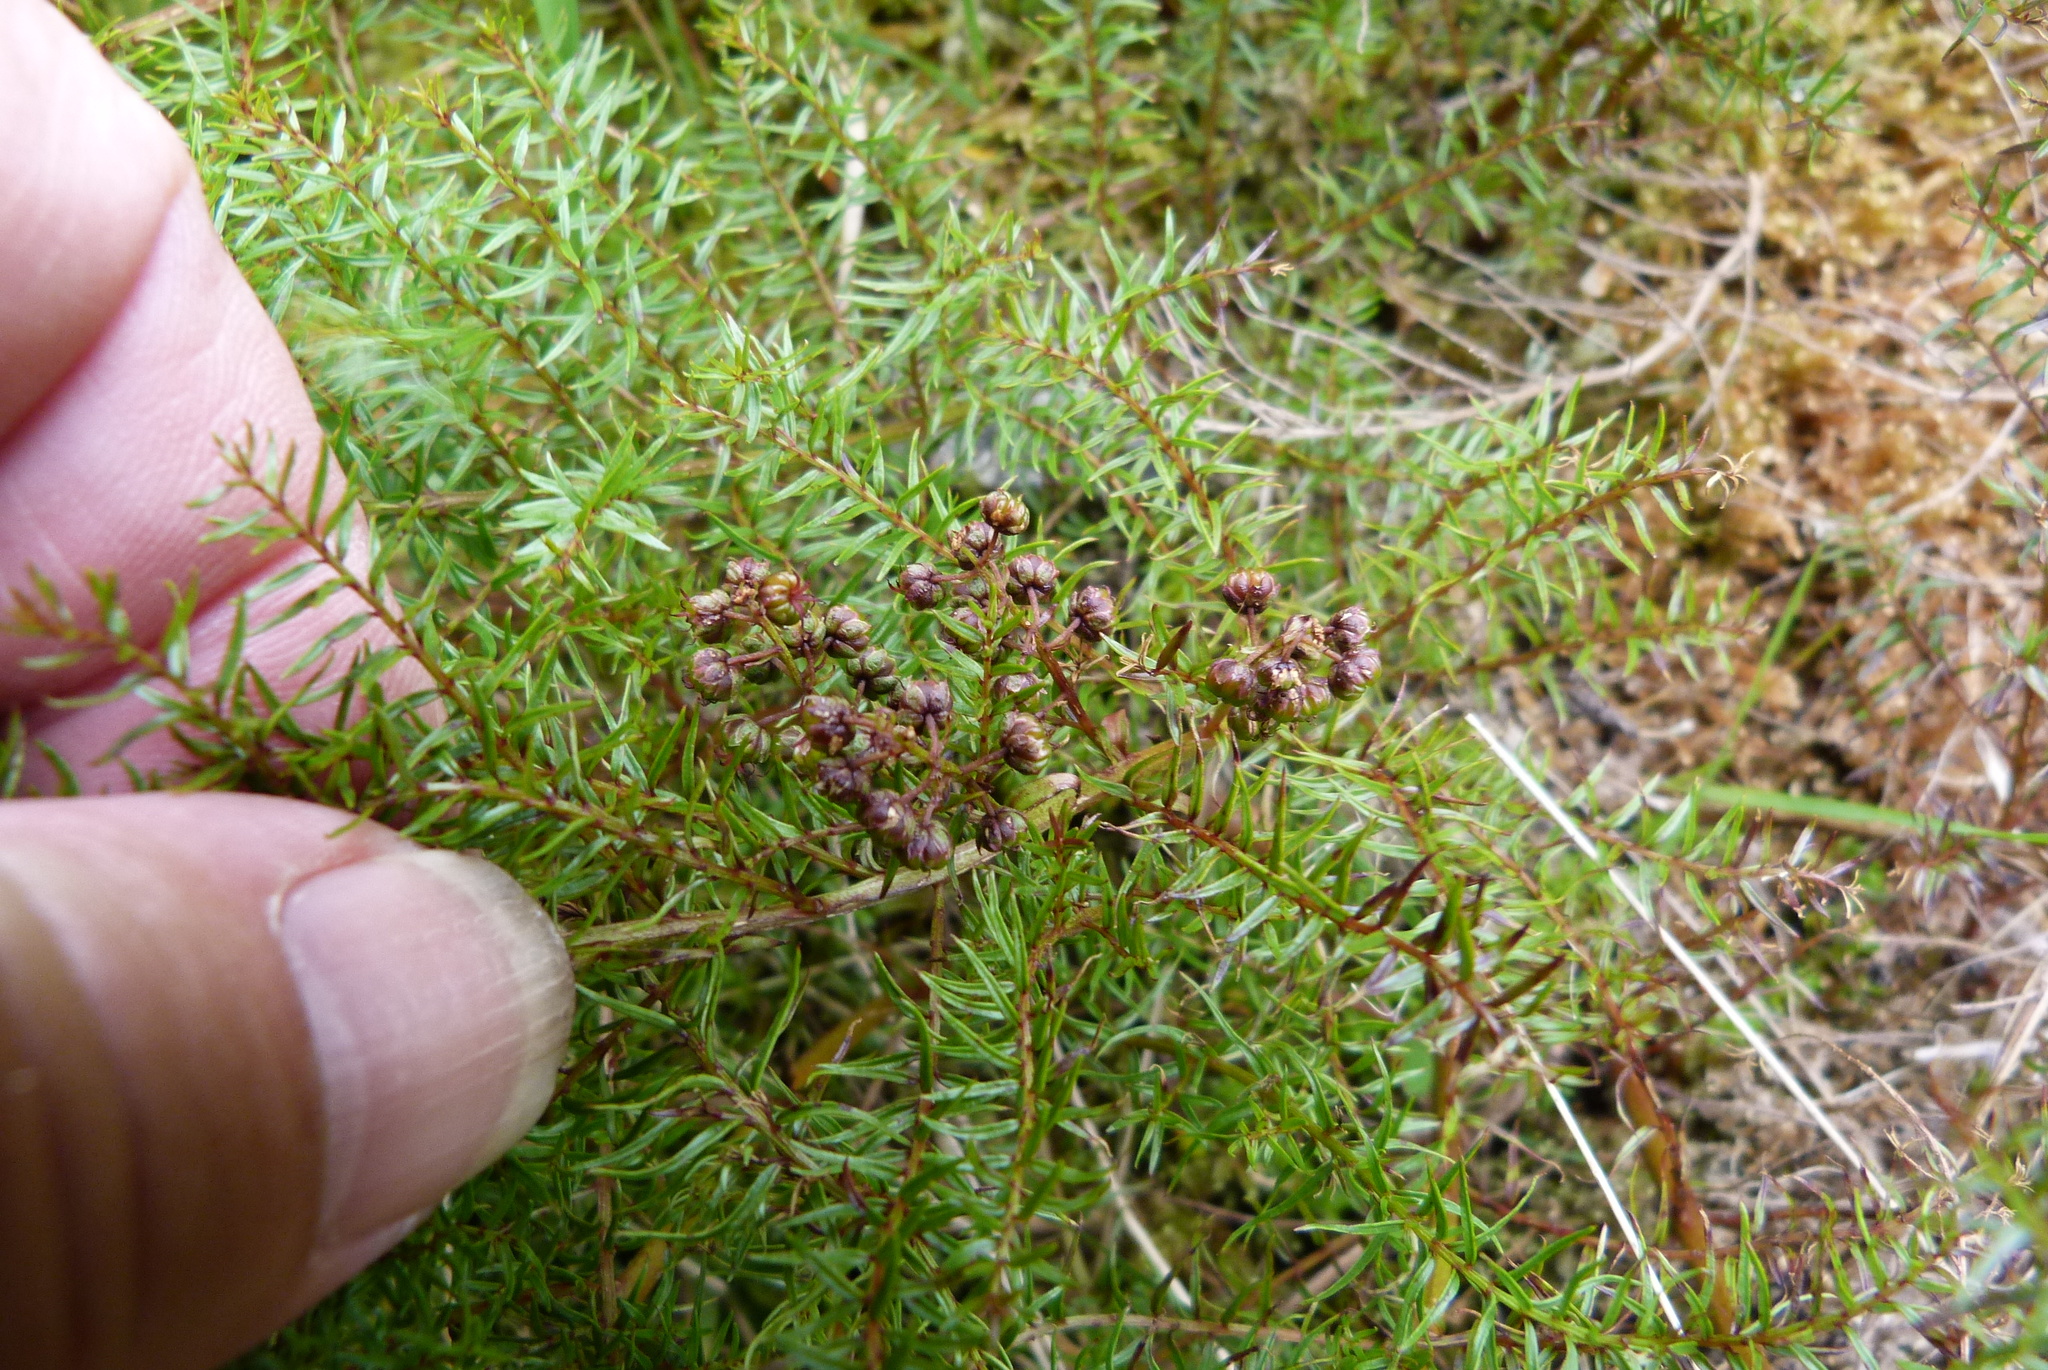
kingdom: Plantae
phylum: Tracheophyta
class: Magnoliopsida
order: Cucurbitales
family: Coriariaceae
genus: Coriaria
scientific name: Coriaria angustissima
